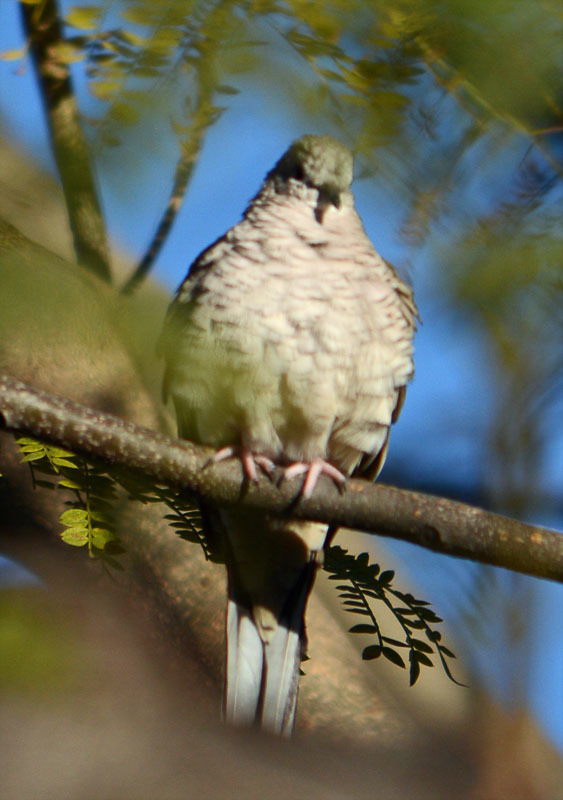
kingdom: Animalia
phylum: Chordata
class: Aves
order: Columbiformes
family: Columbidae
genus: Columbina
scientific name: Columbina inca
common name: Inca dove
